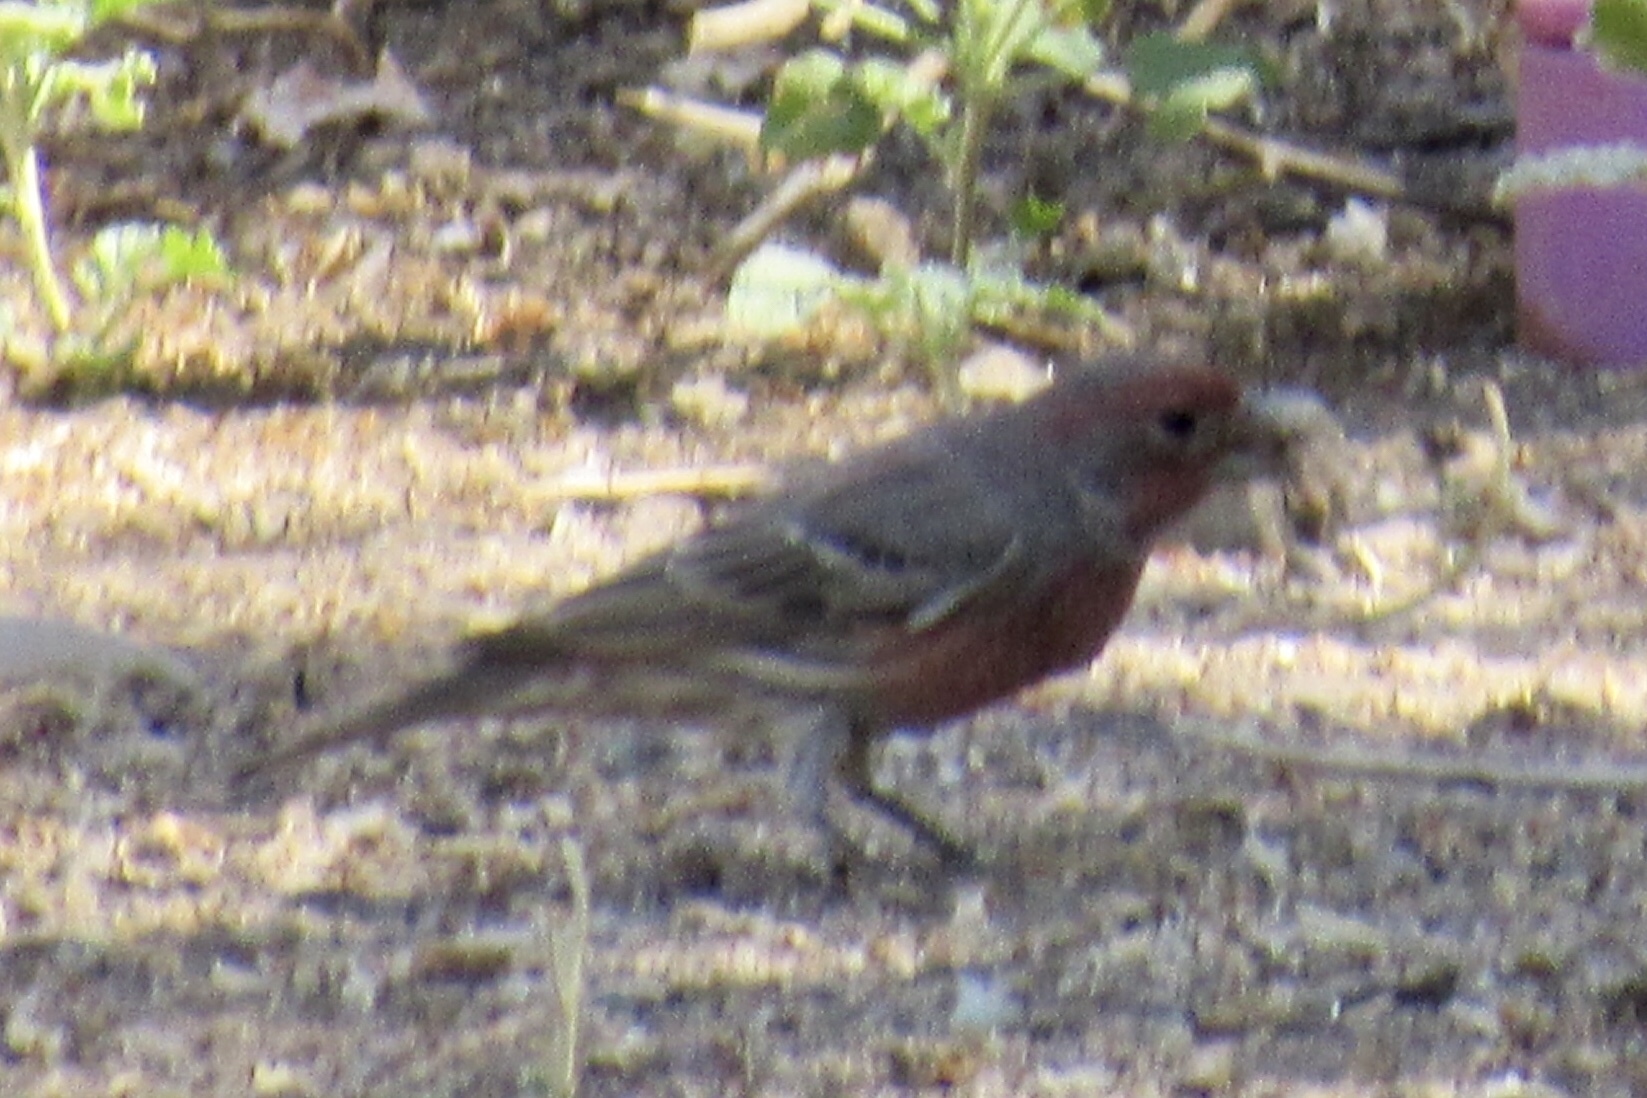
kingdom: Animalia
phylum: Chordata
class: Aves
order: Passeriformes
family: Fringillidae
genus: Haemorhous
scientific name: Haemorhous mexicanus
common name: House finch
